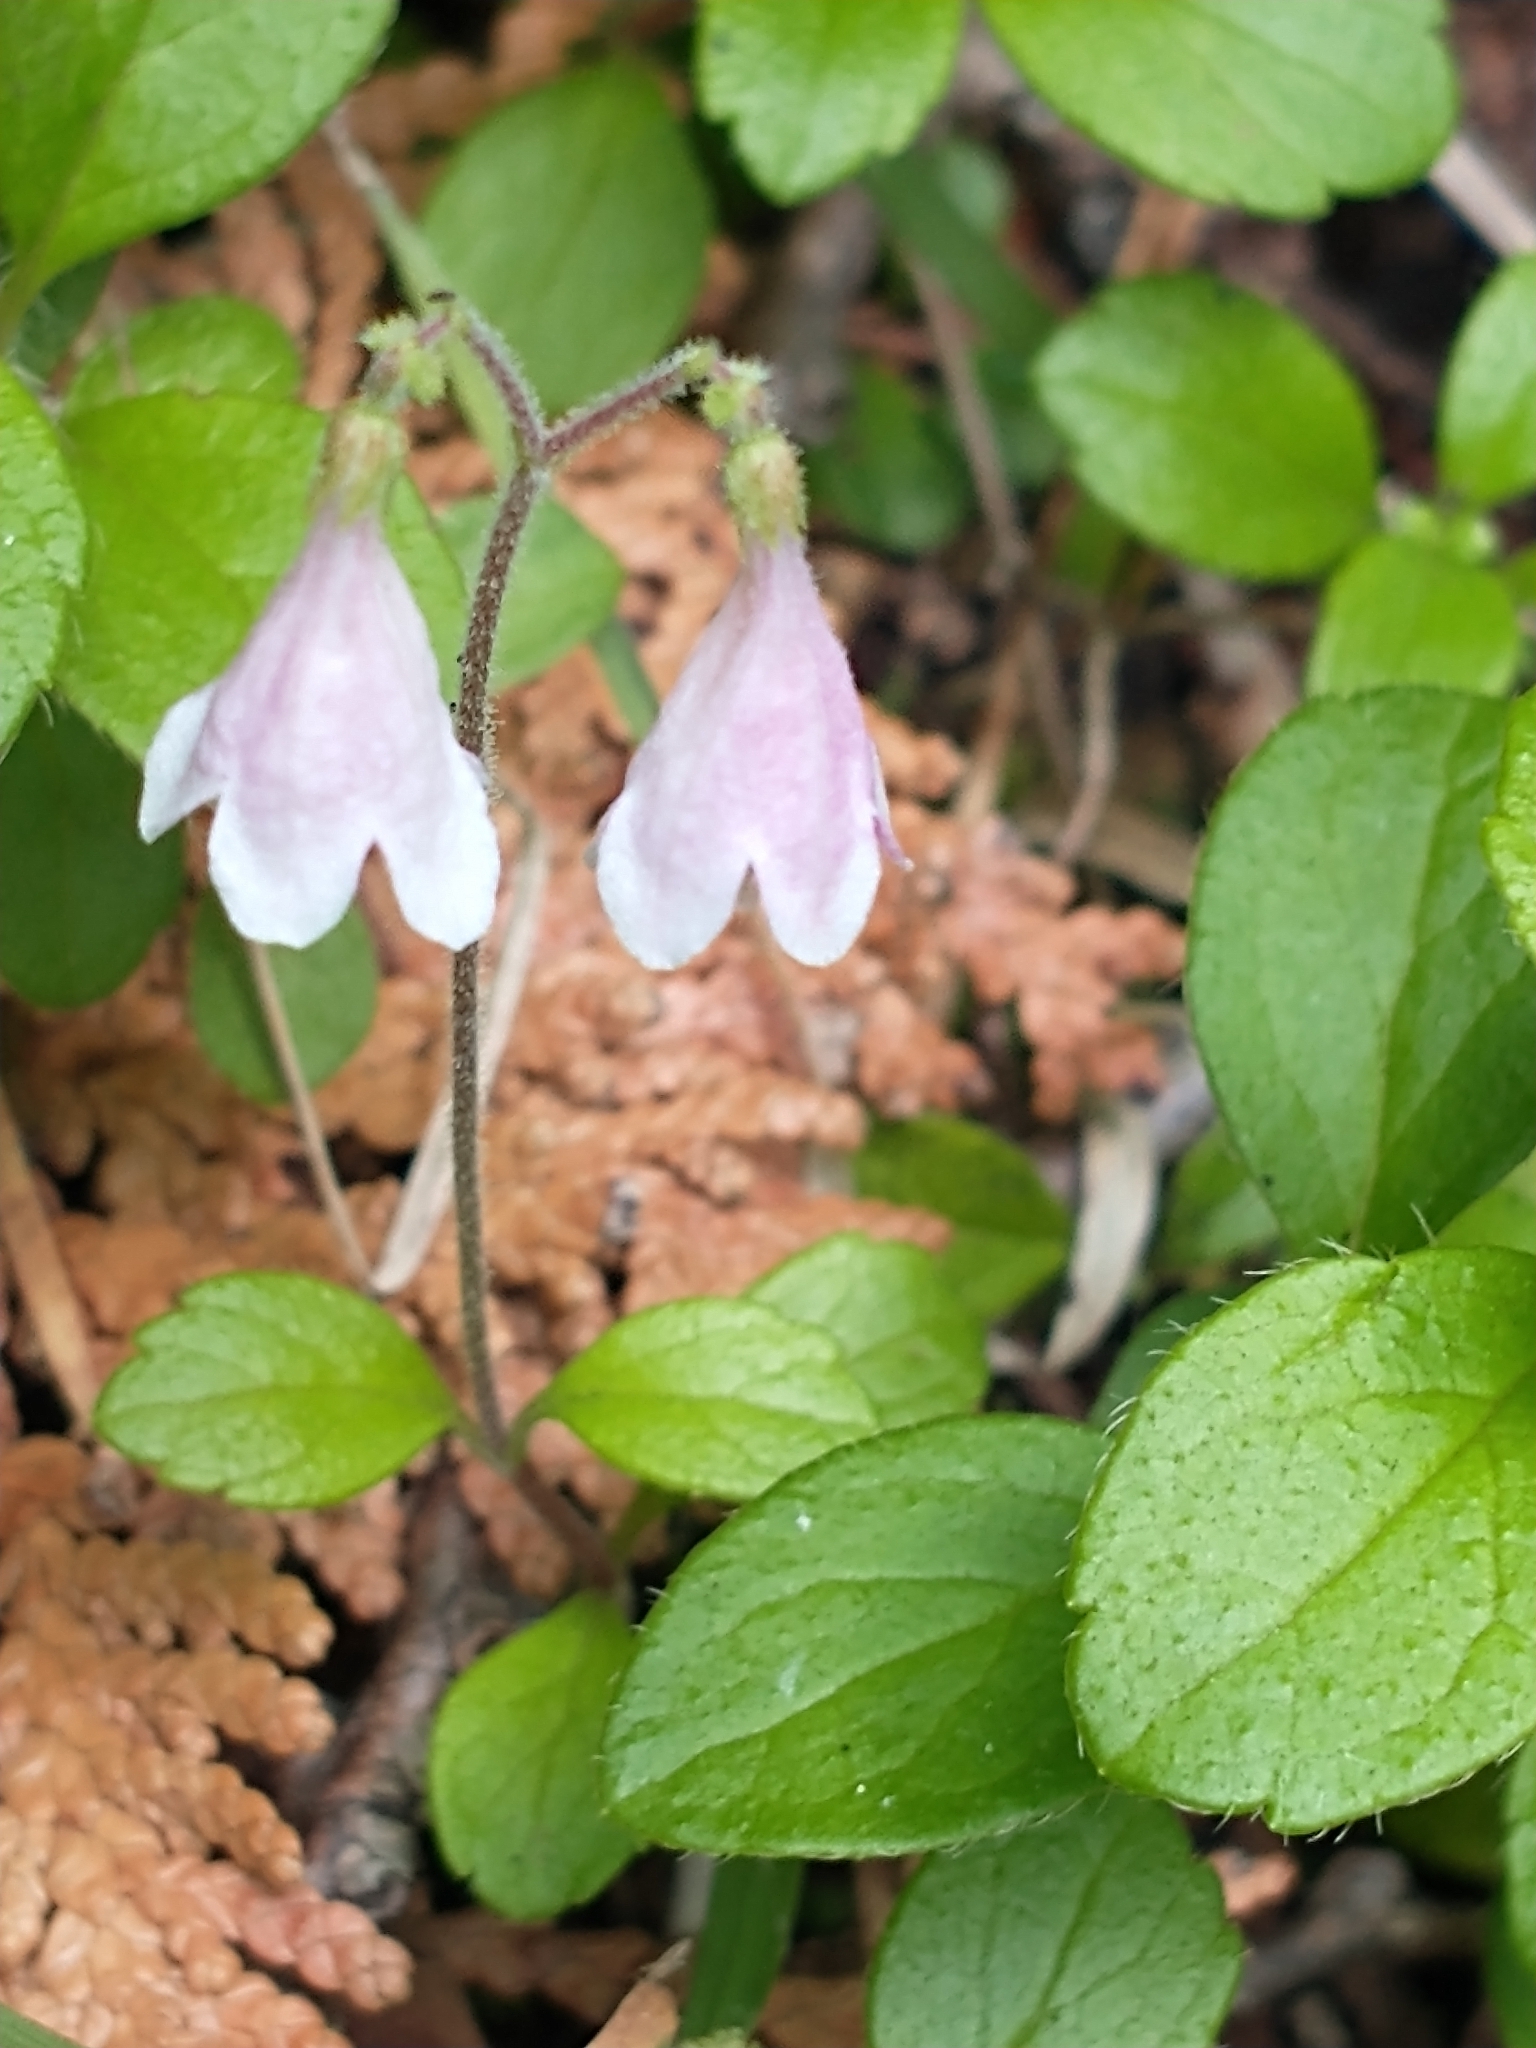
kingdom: Plantae
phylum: Tracheophyta
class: Magnoliopsida
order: Dipsacales
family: Caprifoliaceae
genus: Linnaea
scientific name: Linnaea borealis
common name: Twinflower
